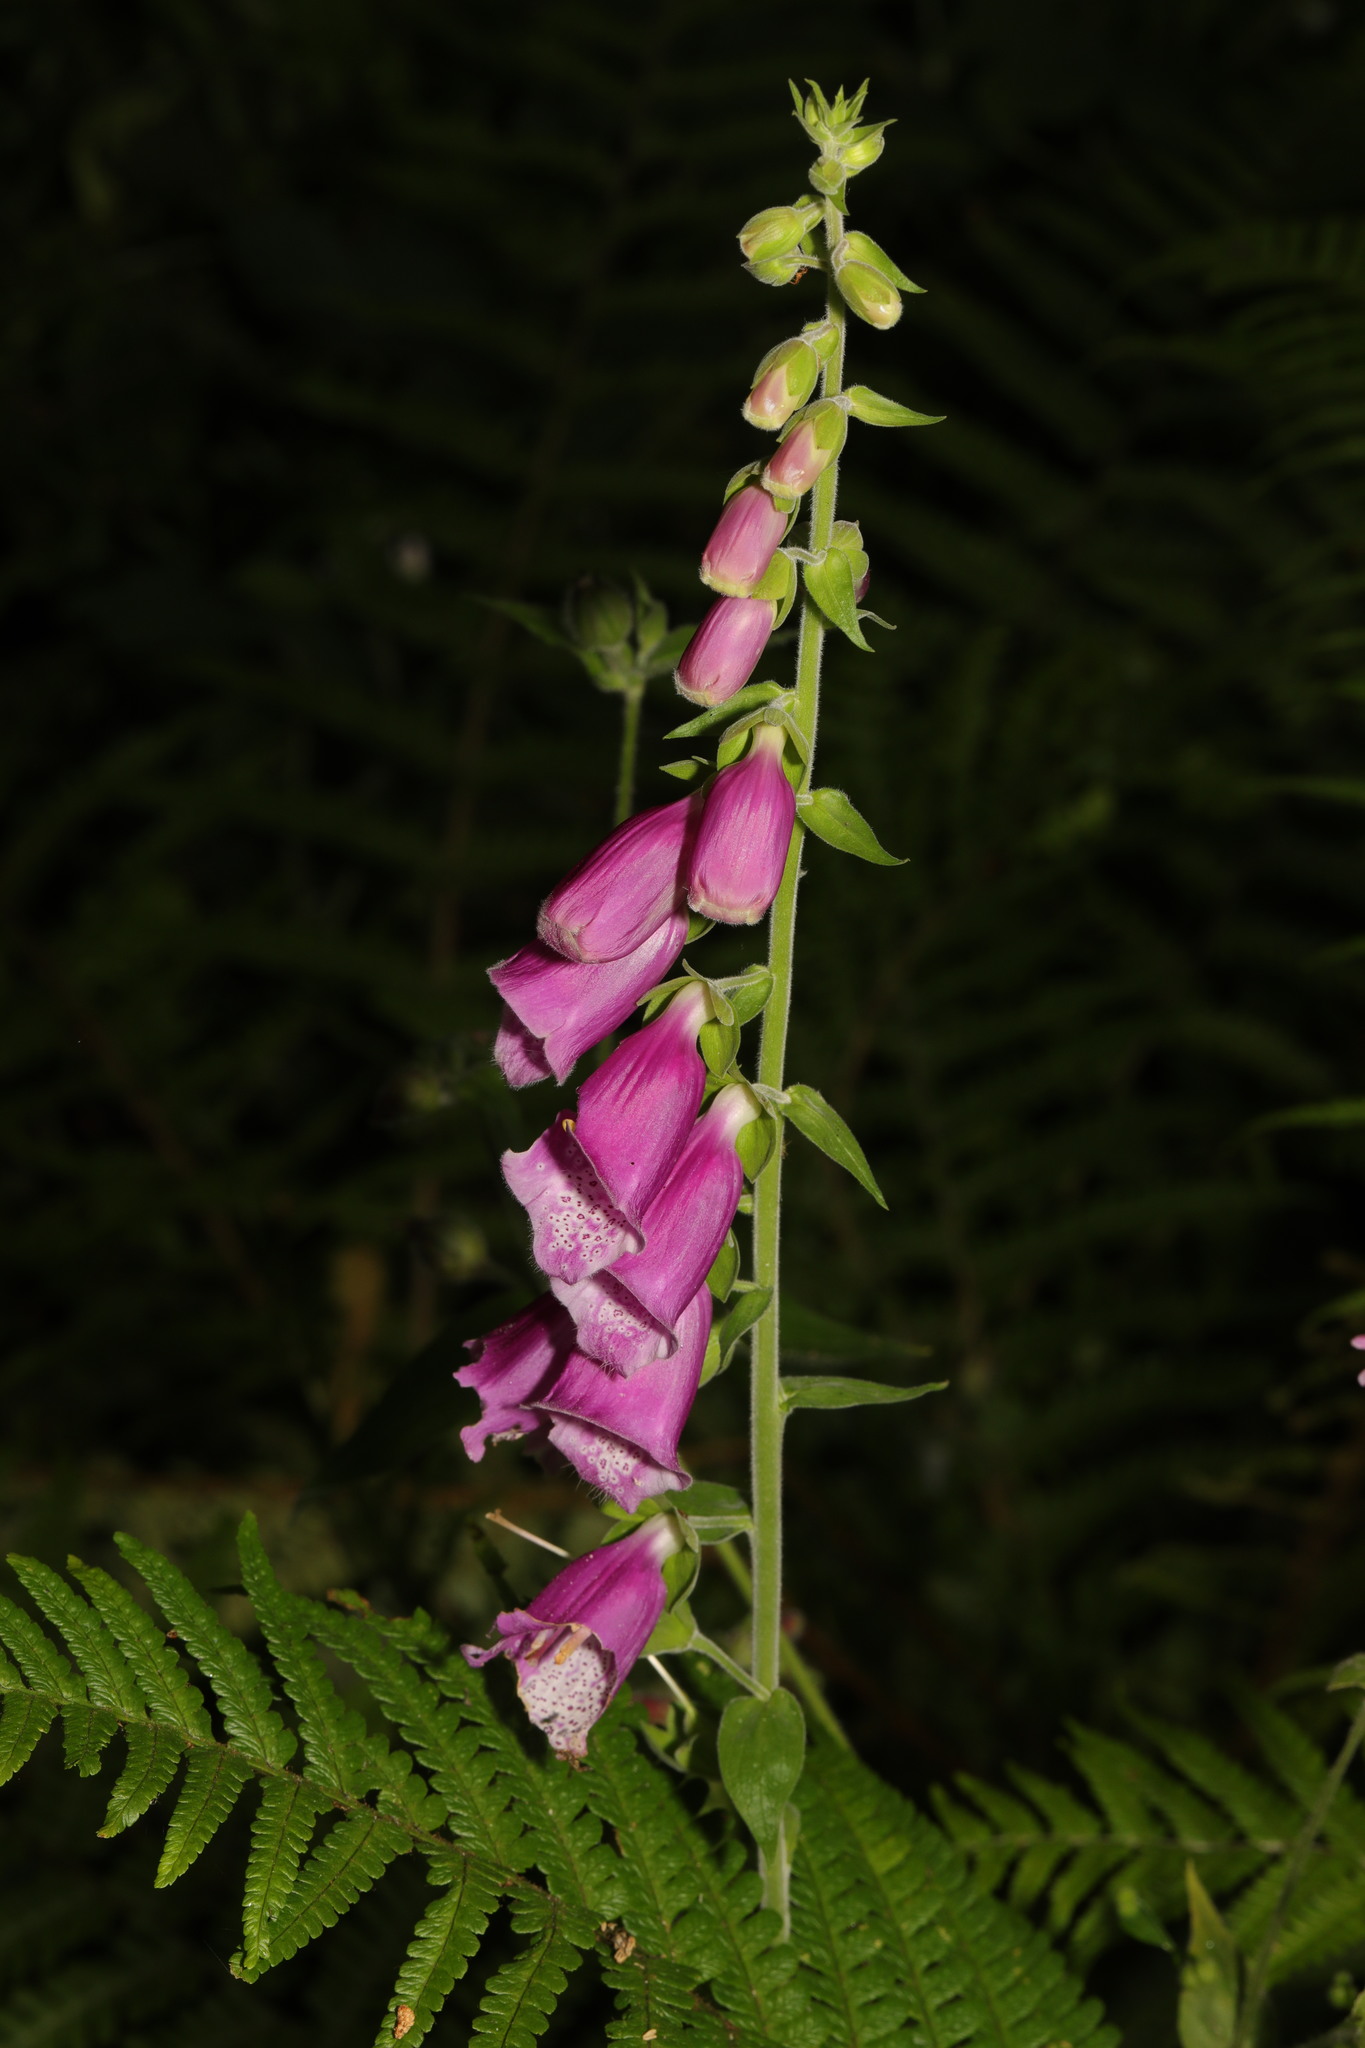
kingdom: Plantae
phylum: Tracheophyta
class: Magnoliopsida
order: Lamiales
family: Plantaginaceae
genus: Digitalis
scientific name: Digitalis purpurea
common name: Foxglove
